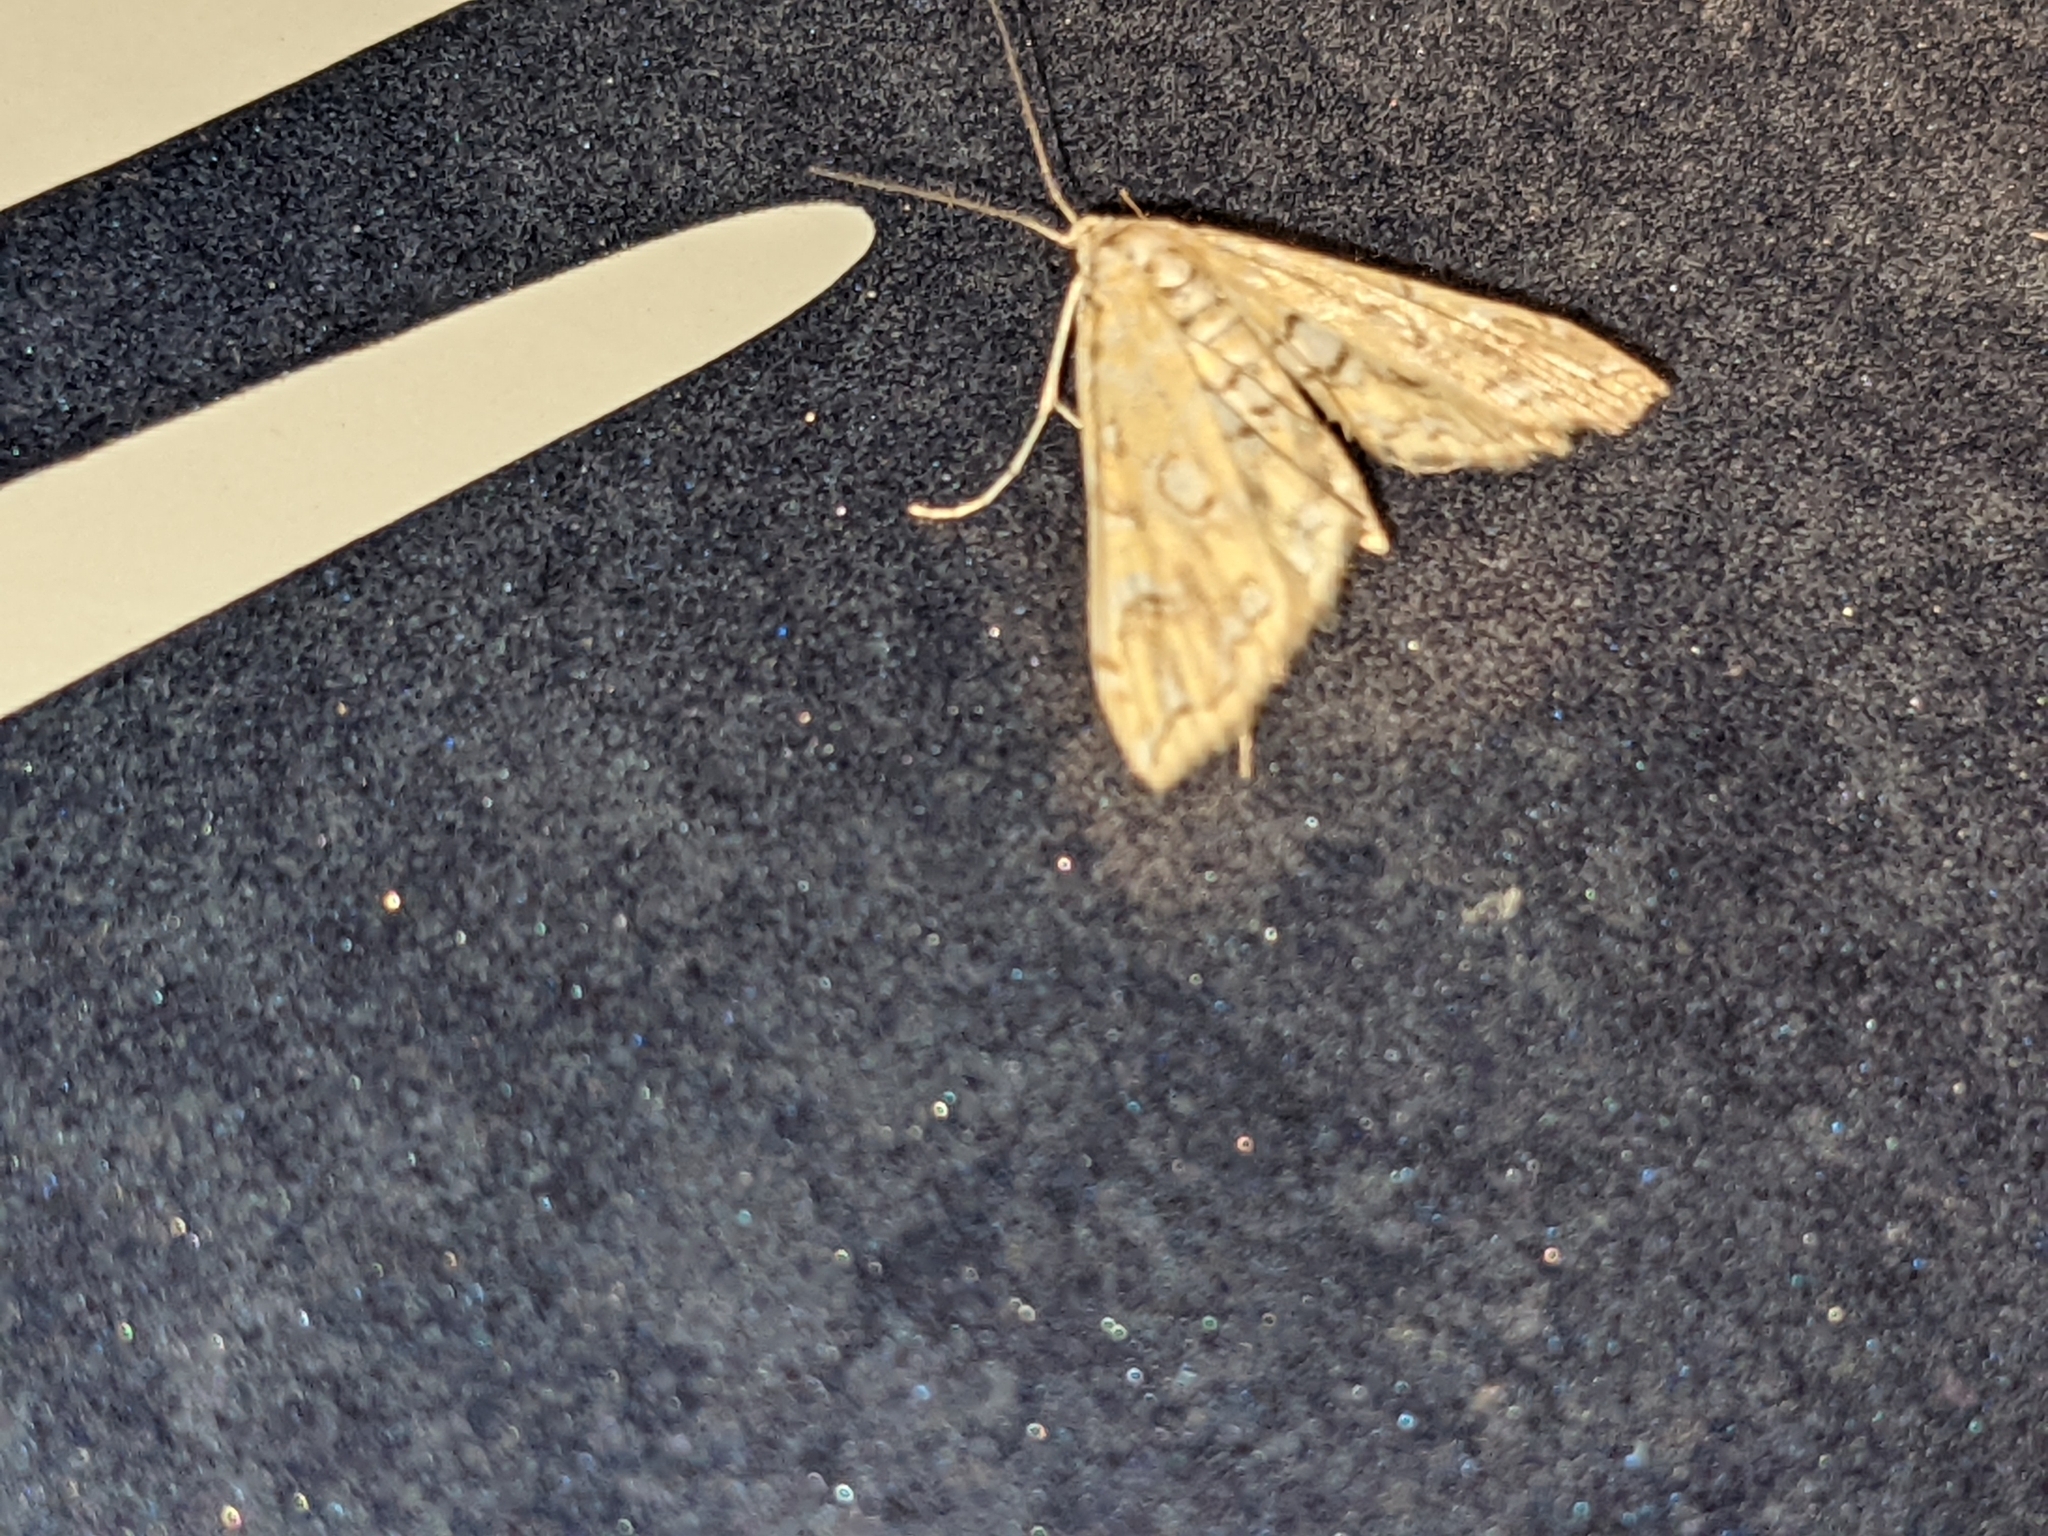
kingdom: Animalia
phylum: Arthropoda
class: Insecta
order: Lepidoptera
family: Crambidae
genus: Elophila
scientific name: Elophila icciusalis
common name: Pondside pyralid moth
